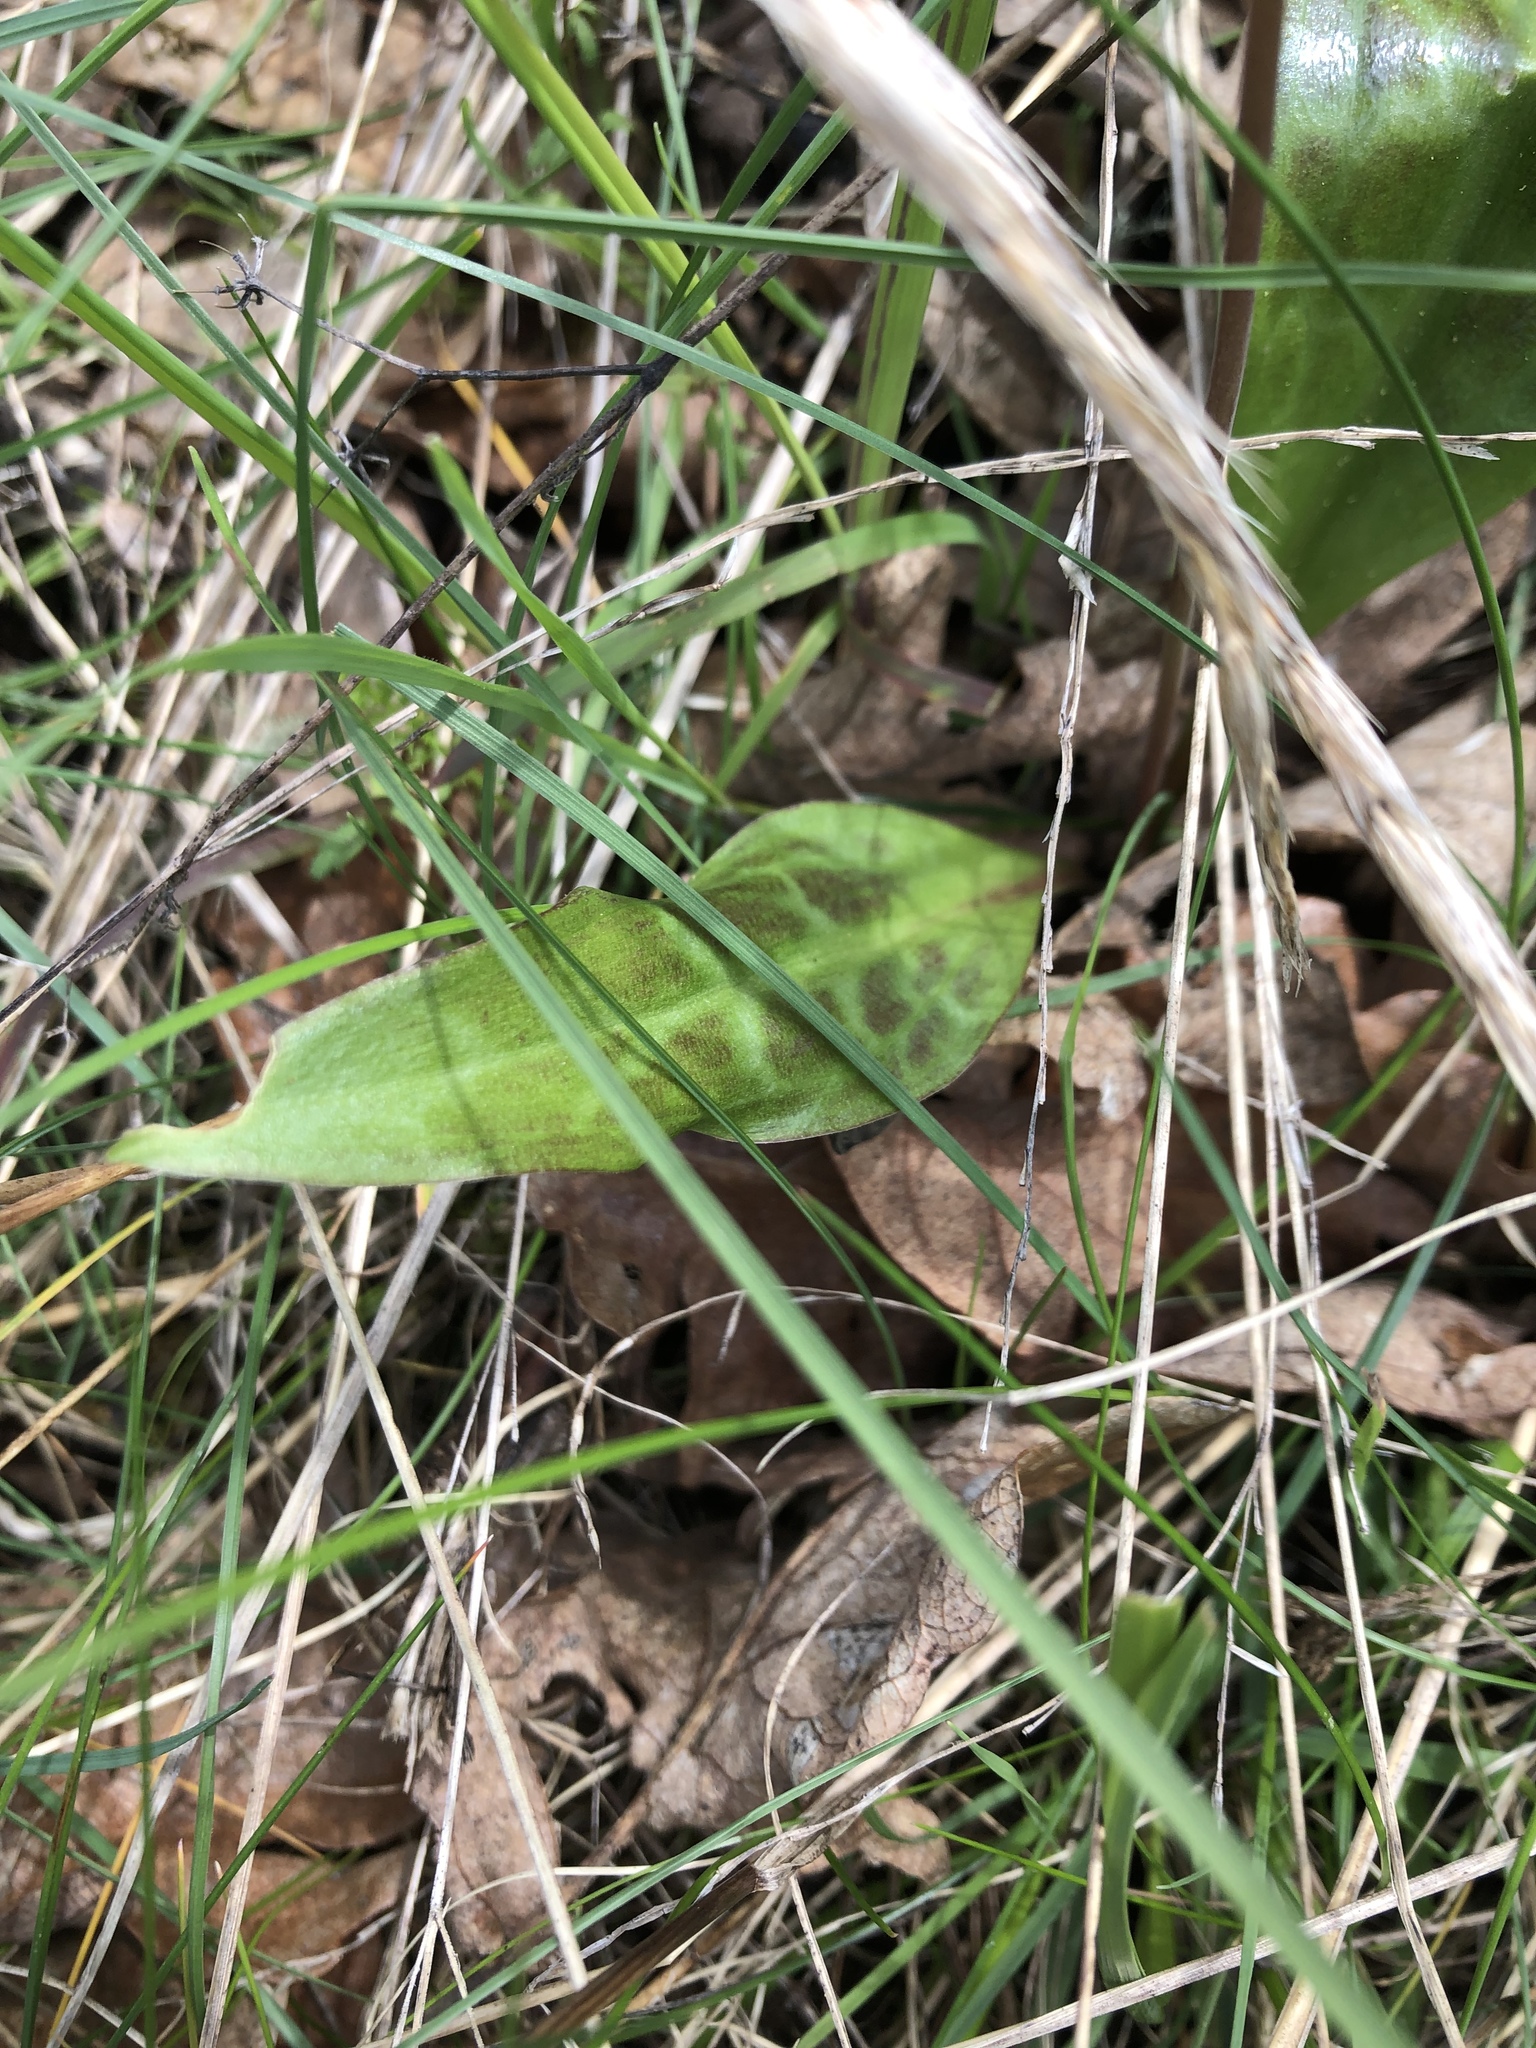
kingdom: Plantae
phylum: Tracheophyta
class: Liliopsida
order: Liliales
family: Liliaceae
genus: Erythronium
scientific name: Erythronium oregonum
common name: Giant adder's-tongue
